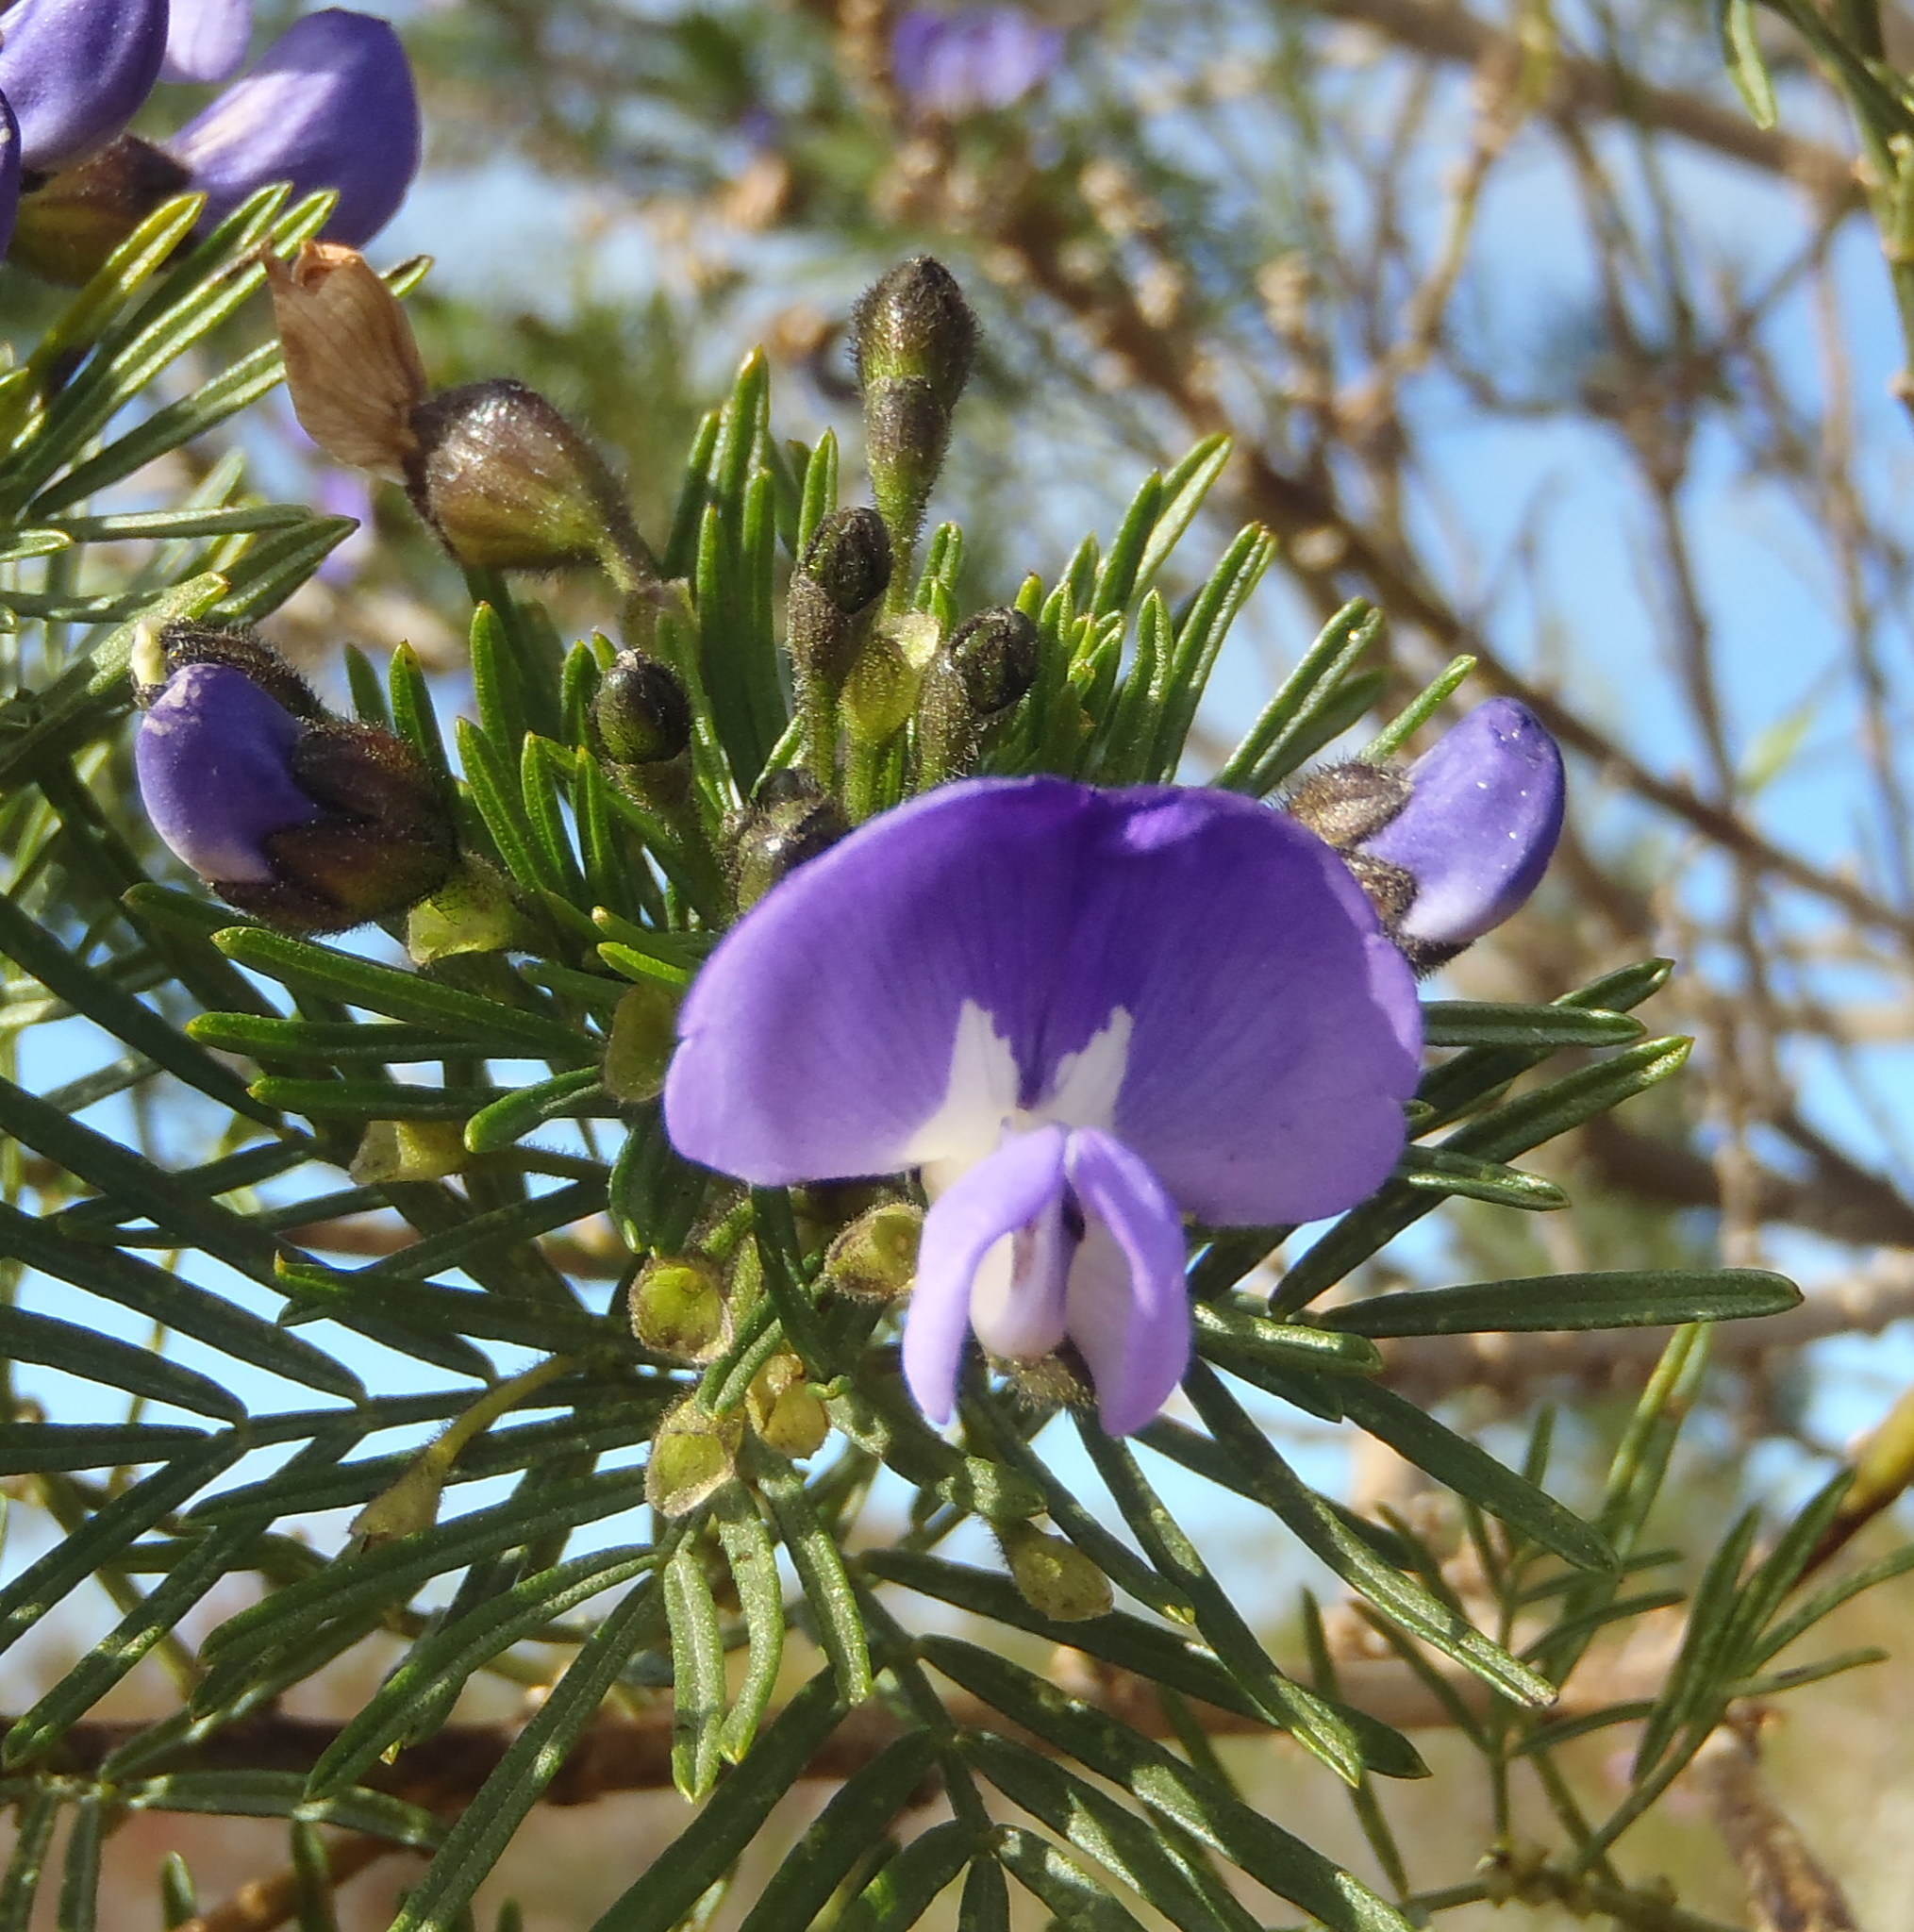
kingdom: Plantae
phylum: Tracheophyta
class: Magnoliopsida
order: Fabales
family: Fabaceae
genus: Psoralea
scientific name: Psoralea affinis
